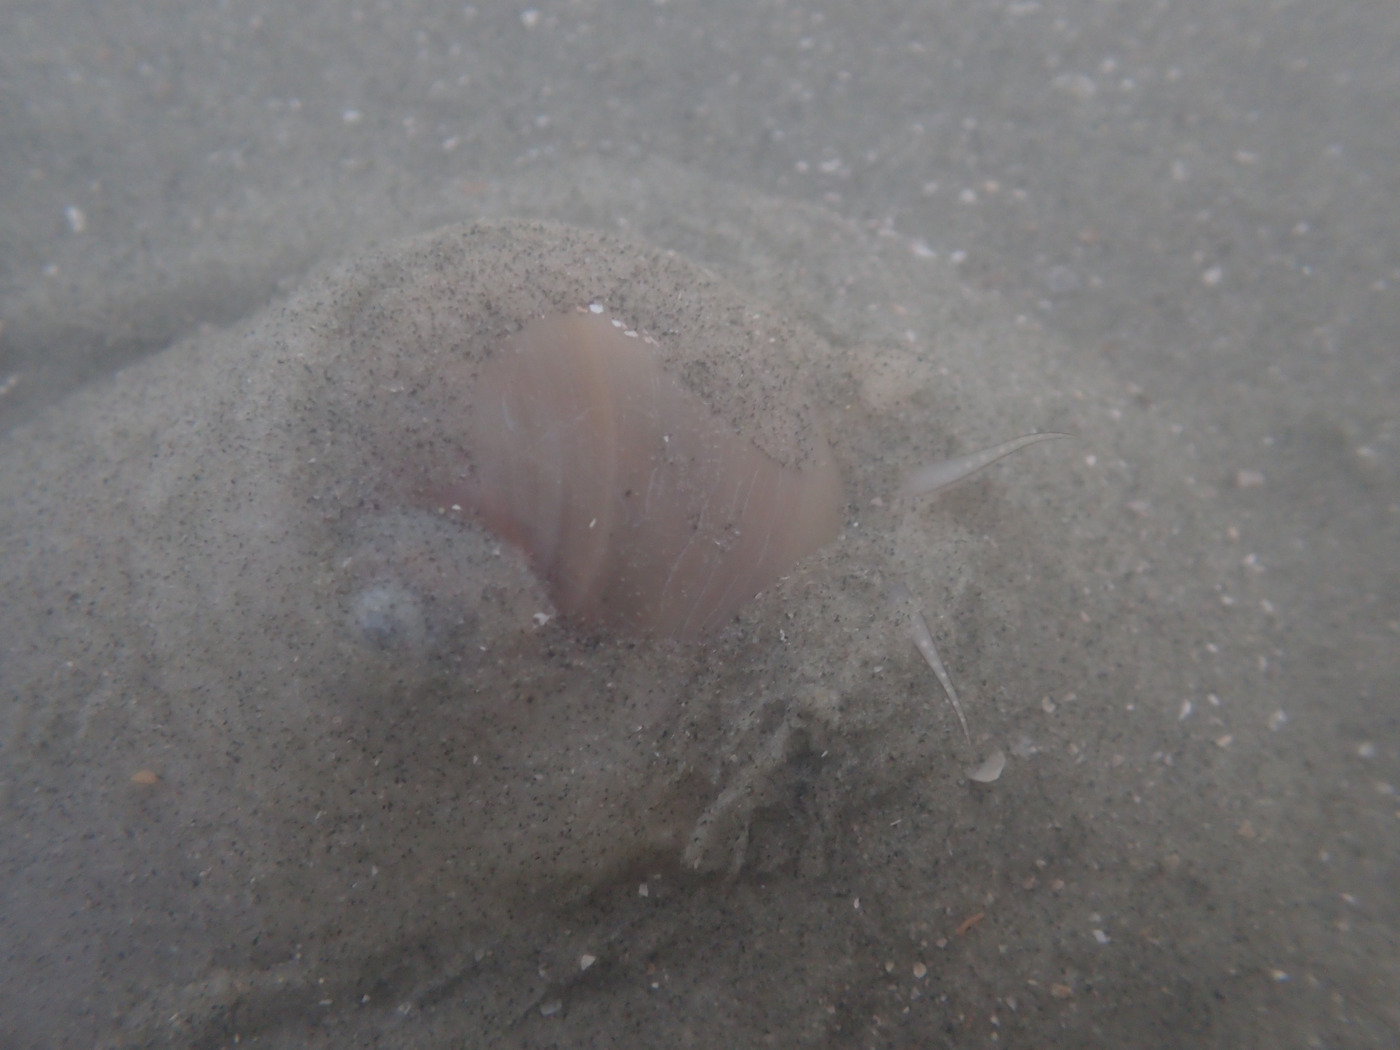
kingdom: Animalia
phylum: Mollusca
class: Gastropoda
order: Littorinimorpha
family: Naticidae
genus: Neverita
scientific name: Neverita duplicata
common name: Lobed moonsnail
